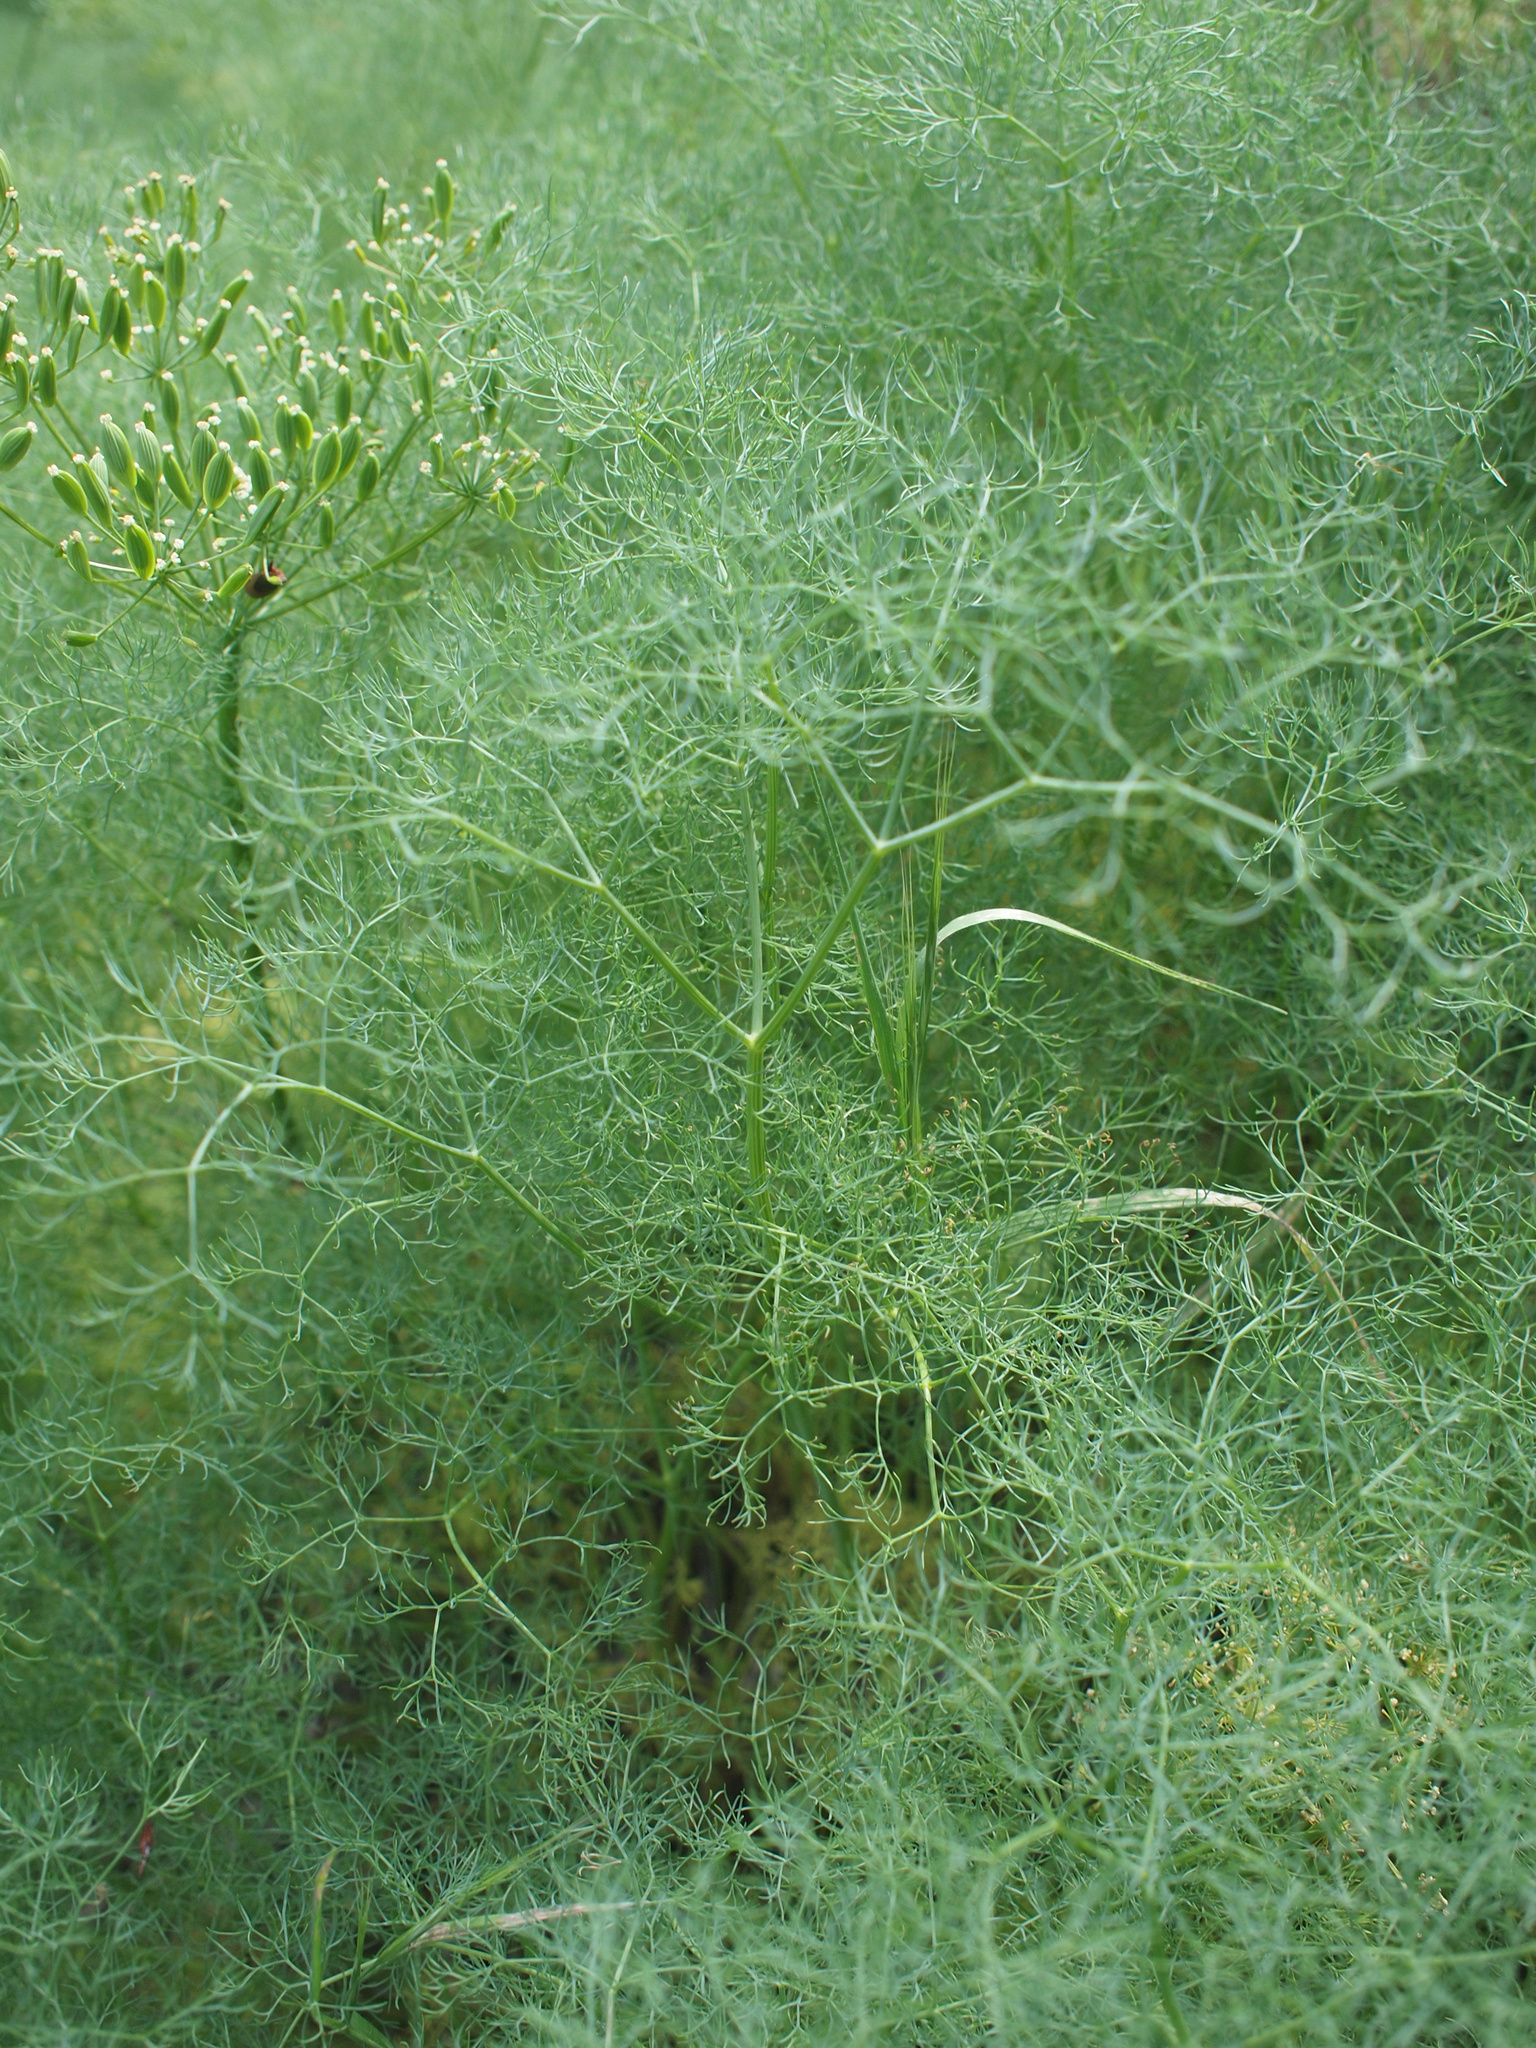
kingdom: Plantae
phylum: Tracheophyta
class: Magnoliopsida
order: Apiales
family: Apiaceae
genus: Lomatium
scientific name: Lomatium klickitatense
